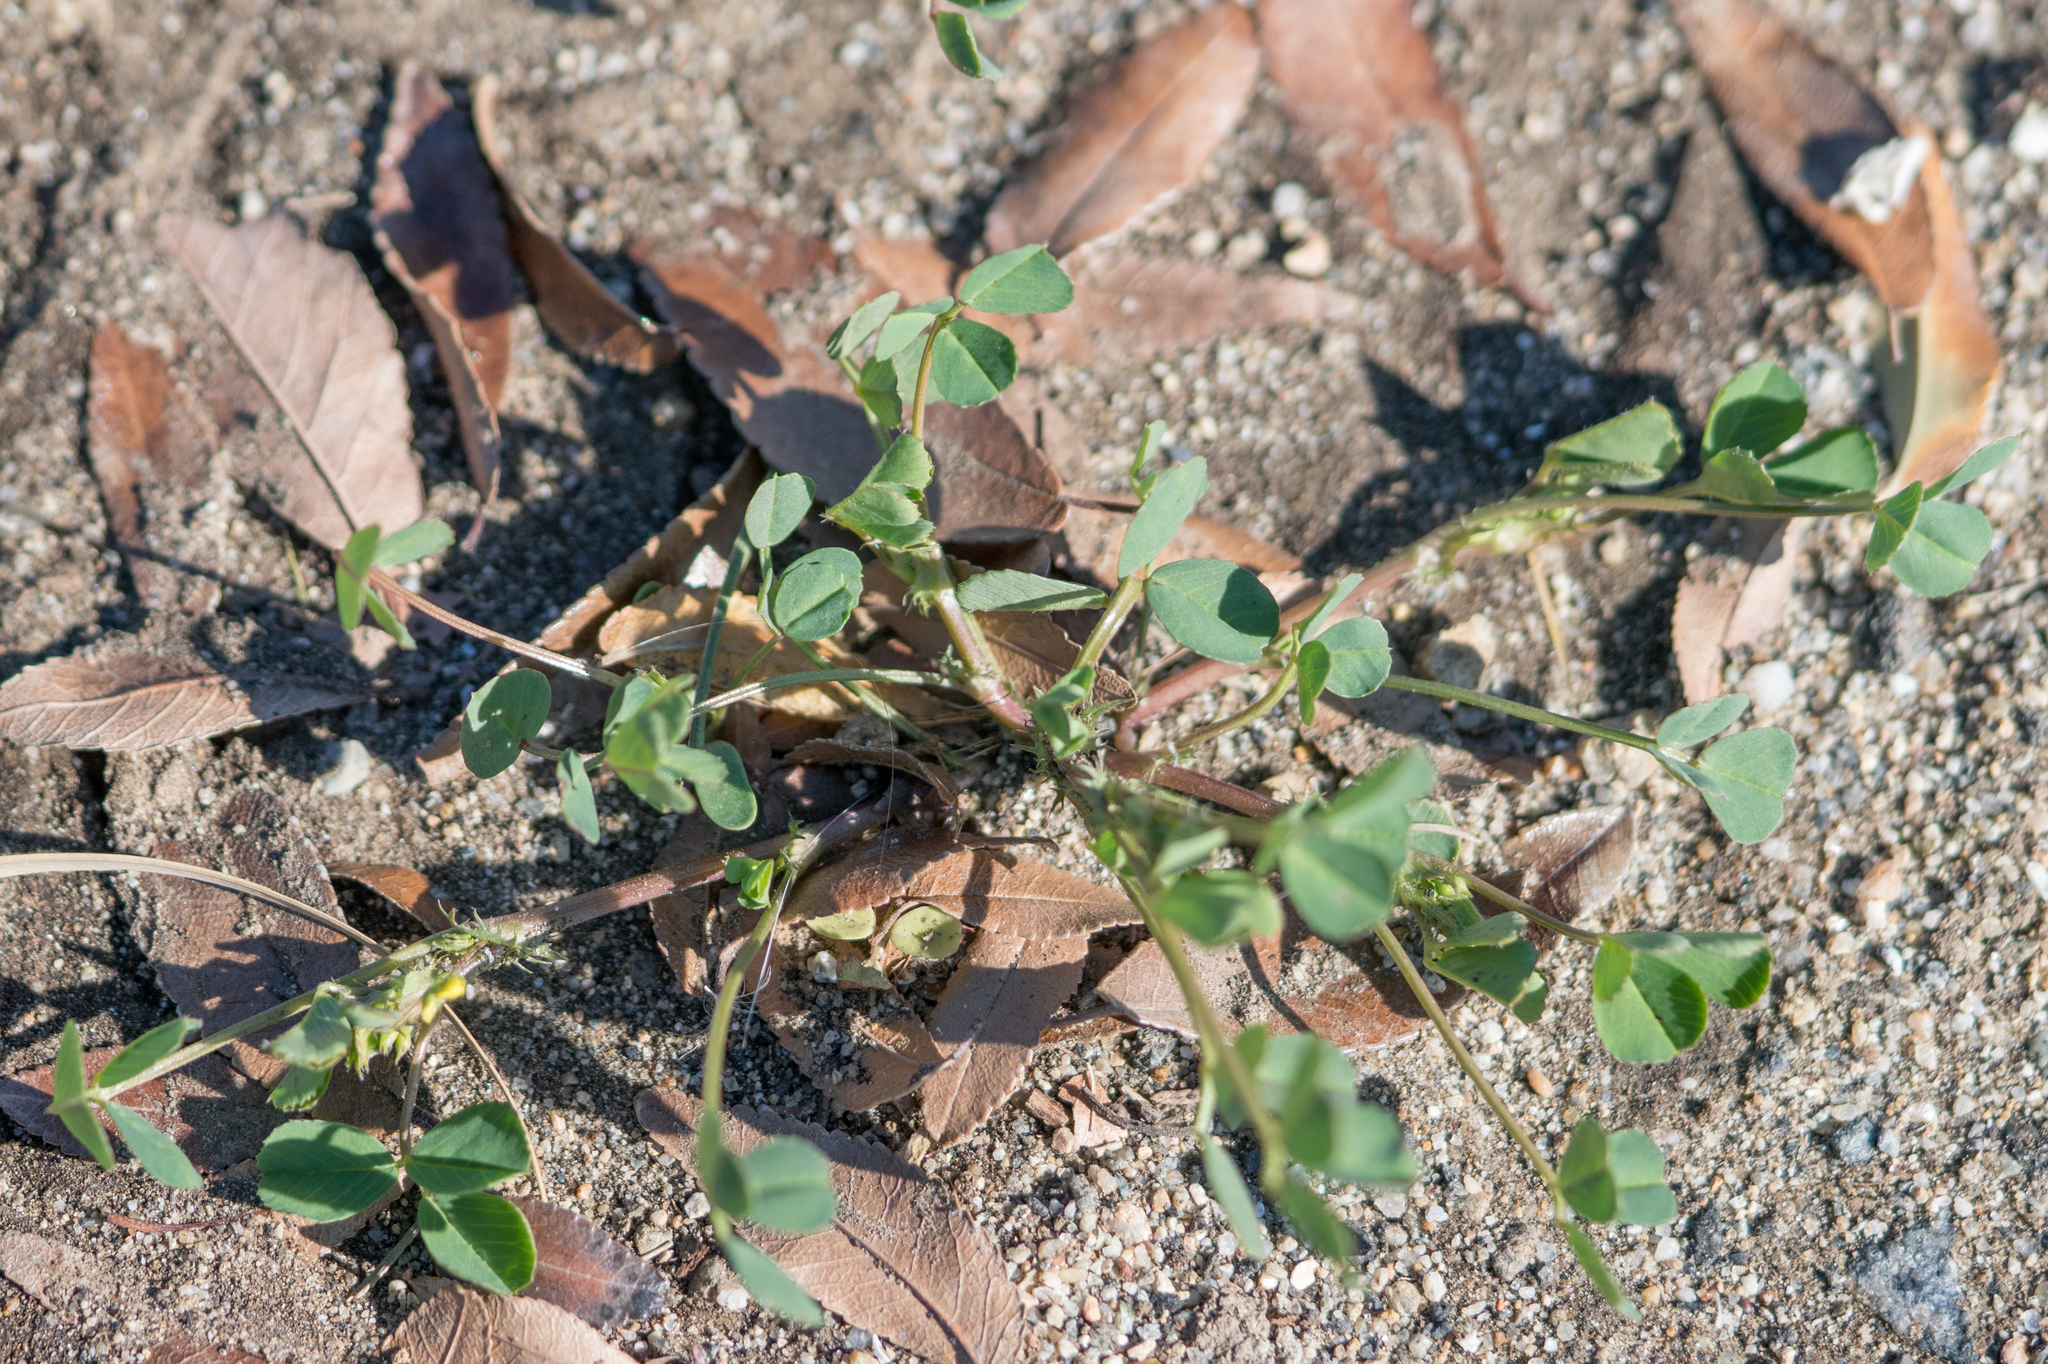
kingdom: Plantae
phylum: Tracheophyta
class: Magnoliopsida
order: Fabales
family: Fabaceae
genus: Medicago
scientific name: Medicago polymorpha
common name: Burclover
